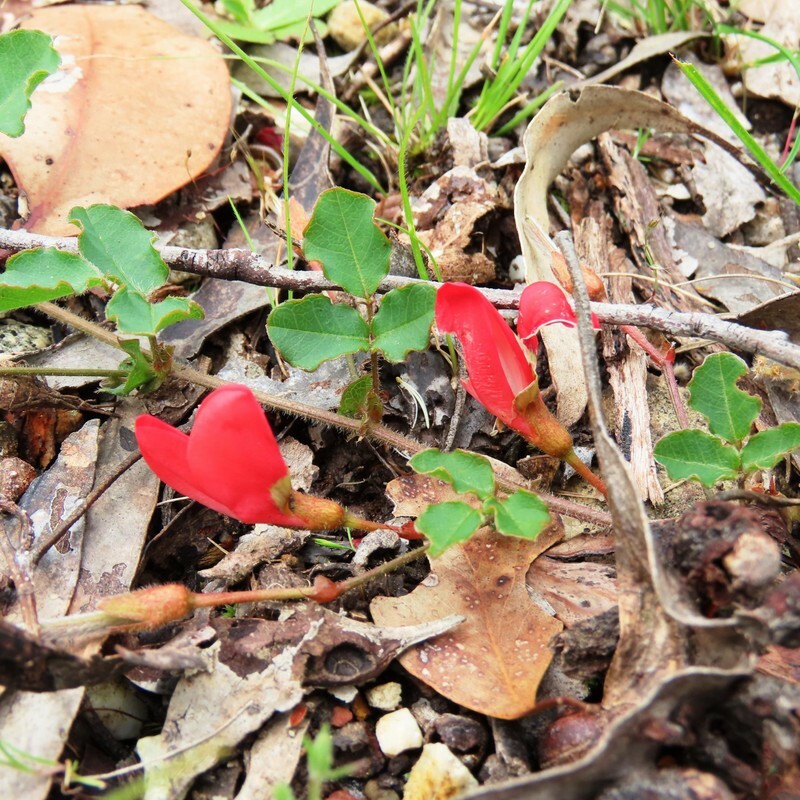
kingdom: Plantae
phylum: Tracheophyta
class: Magnoliopsida
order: Fabales
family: Fabaceae
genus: Kennedia
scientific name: Kennedia prostrata
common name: Running-postman
